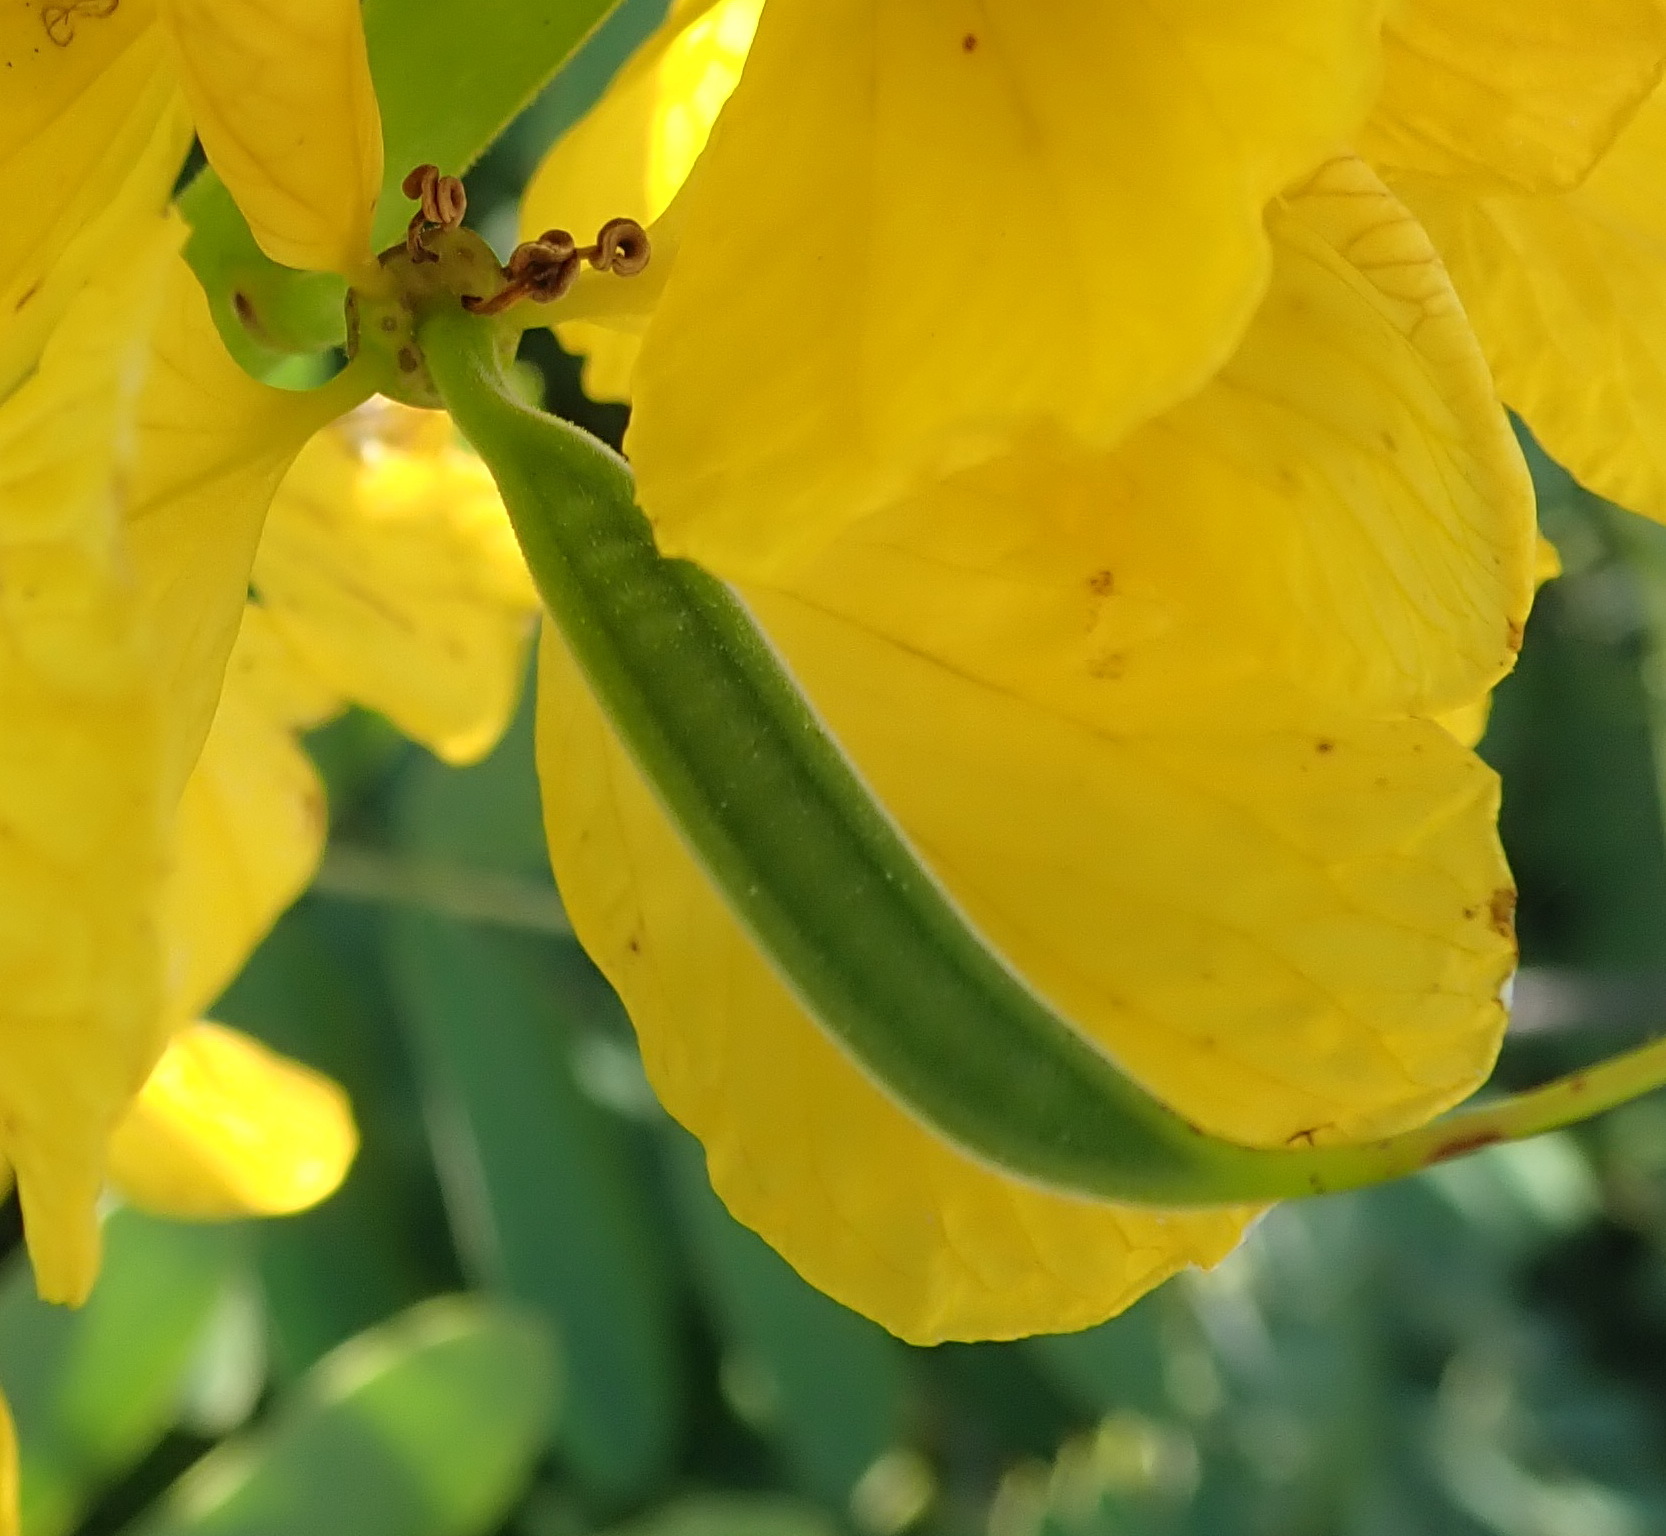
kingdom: Plantae
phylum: Tracheophyta
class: Magnoliopsida
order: Fabales
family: Fabaceae
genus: Senna
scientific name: Senna didymobotrya
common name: African senna
